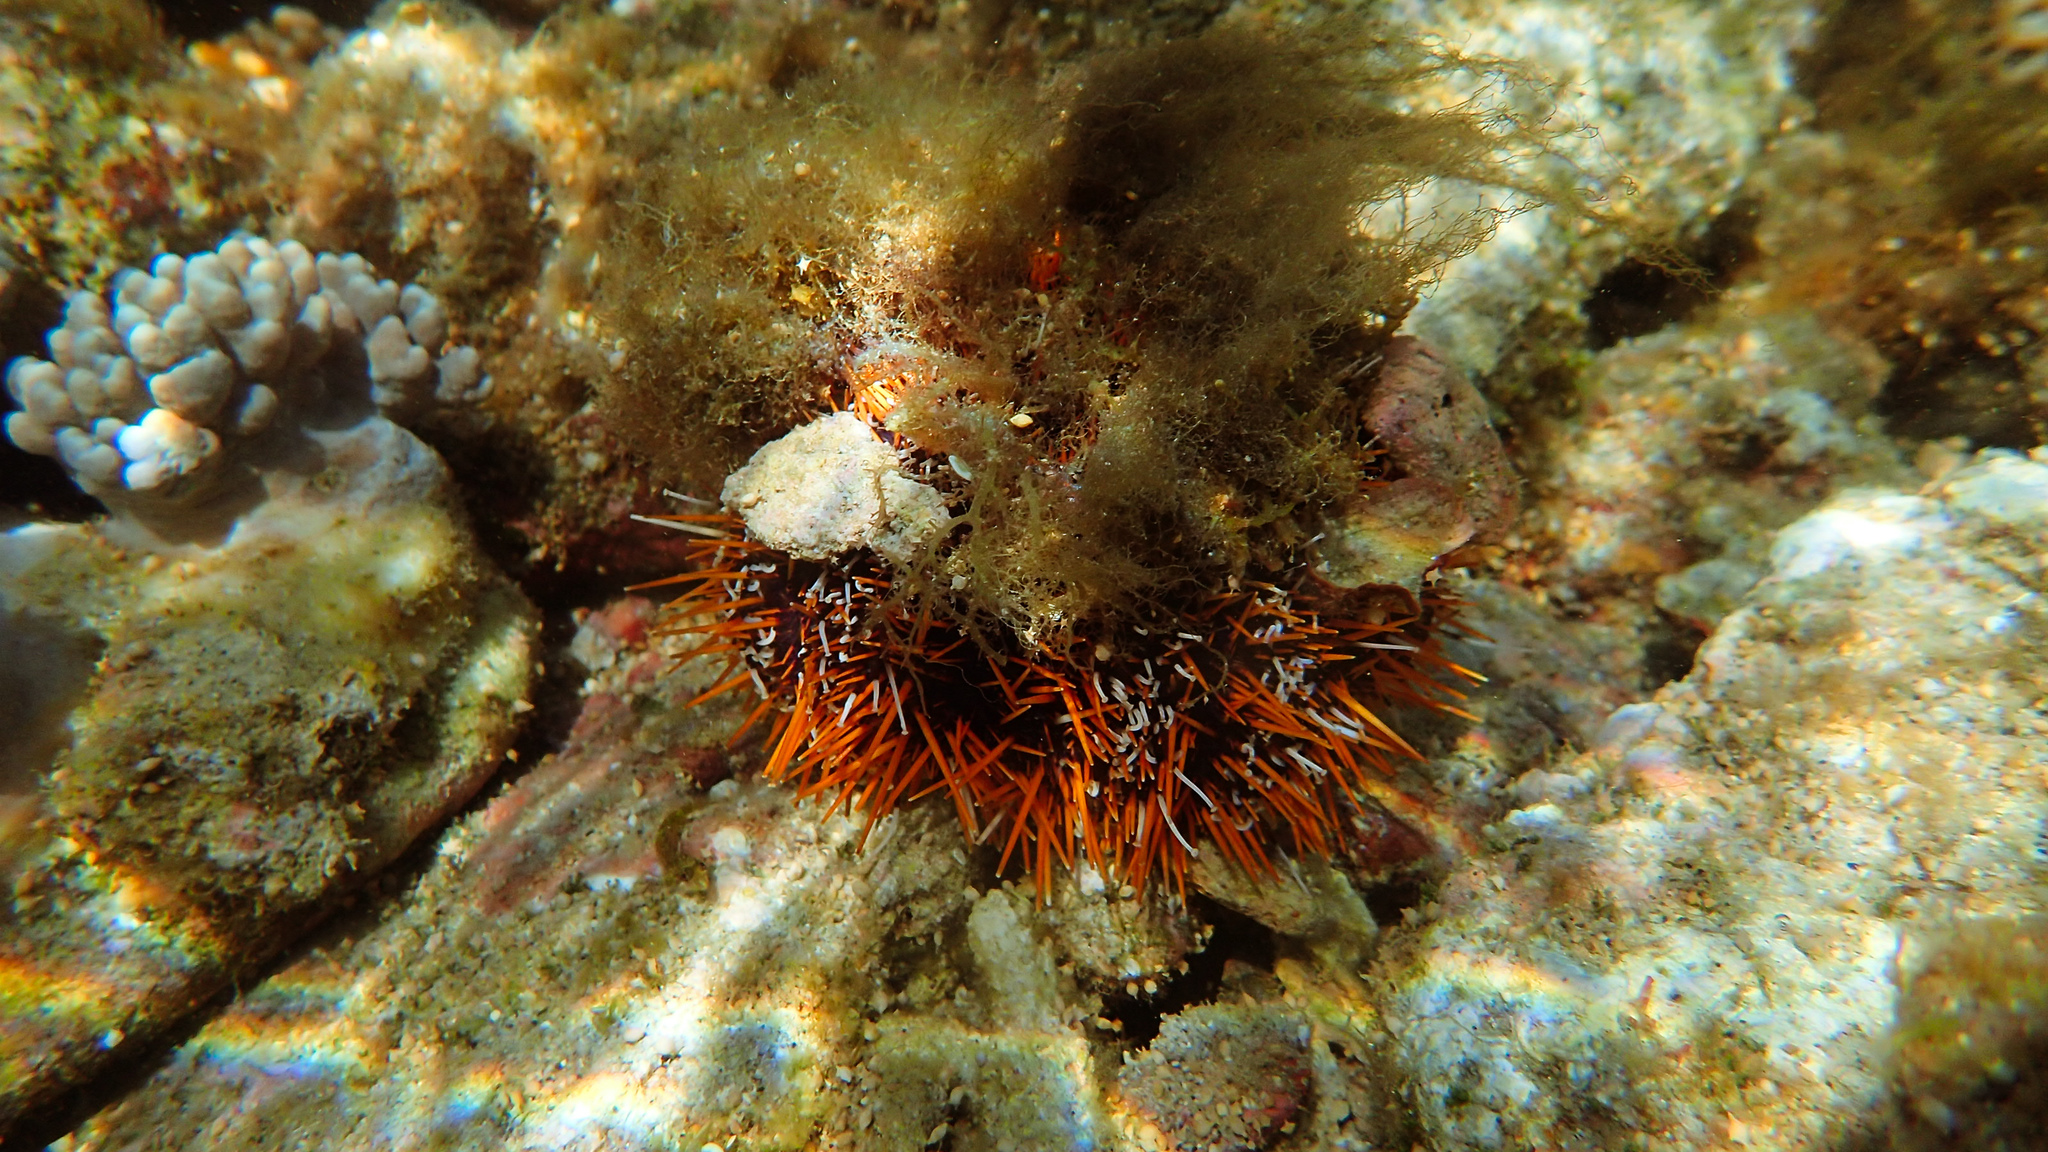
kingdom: Animalia
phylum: Echinodermata
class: Echinoidea
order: Camarodonta
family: Toxopneustidae
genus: Tripneustes
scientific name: Tripneustes gratilla
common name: Bischofsmützenseeigel
